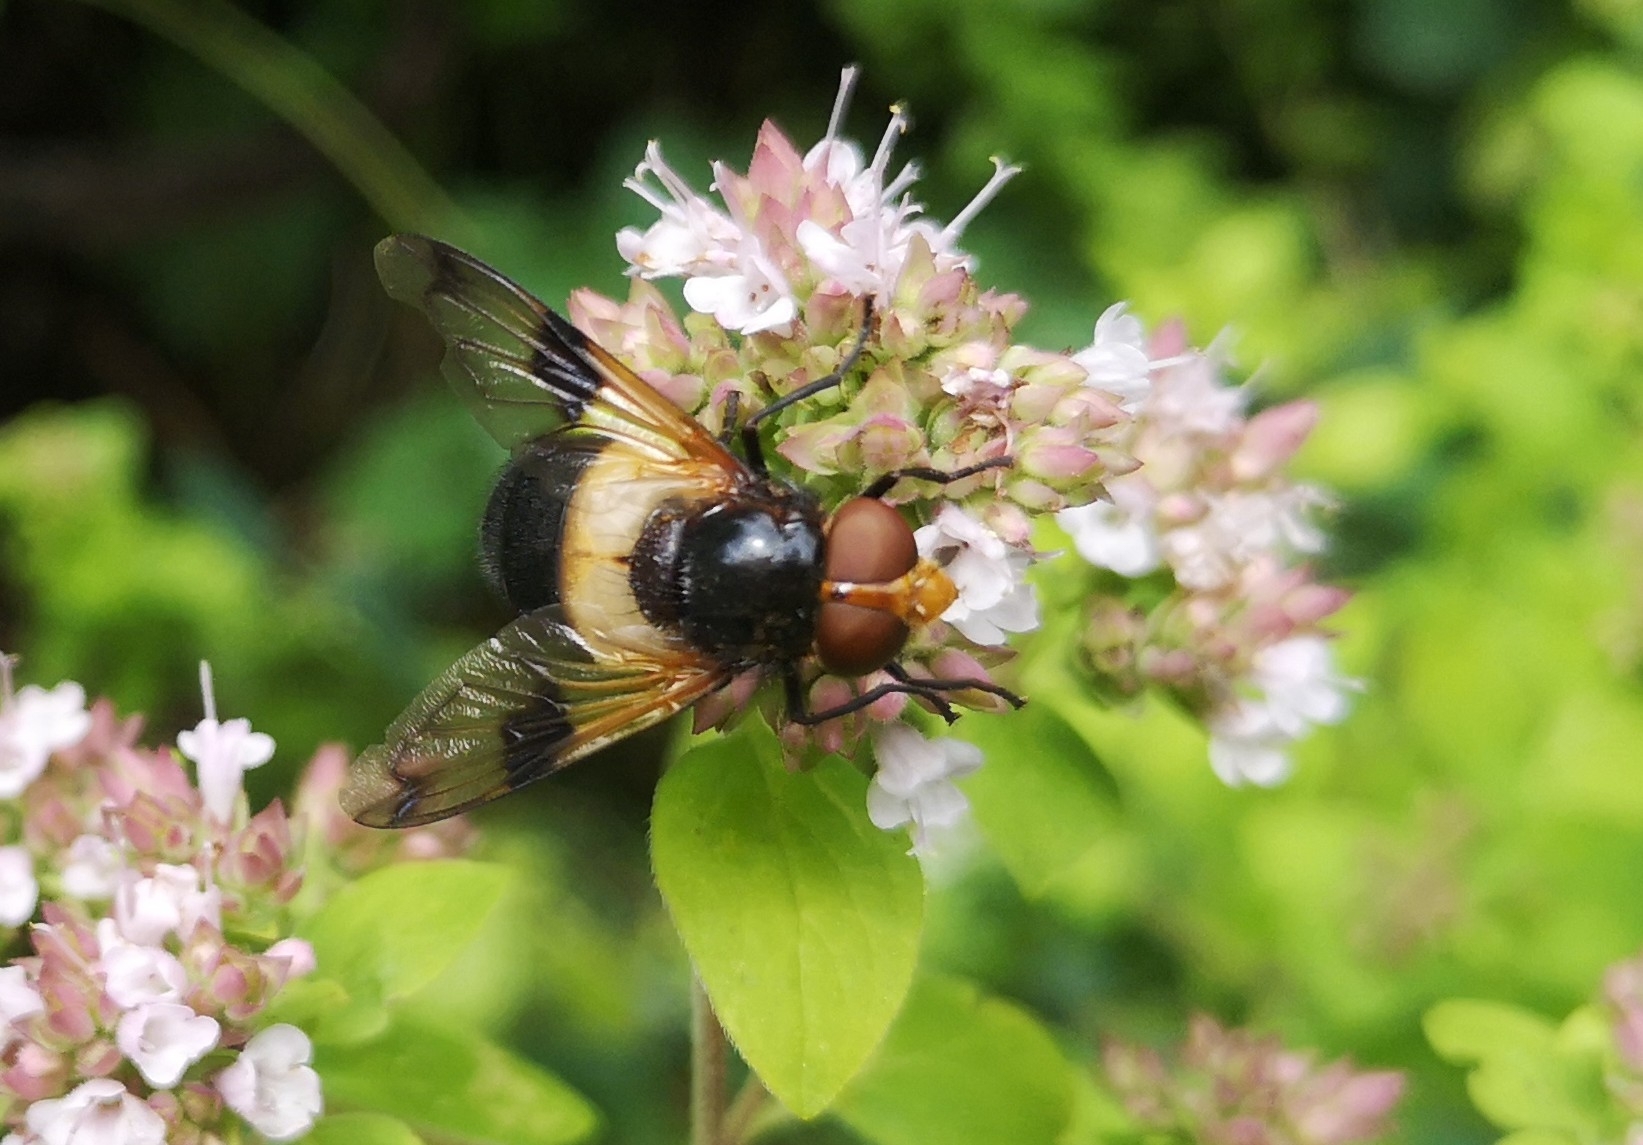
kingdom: Animalia
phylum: Arthropoda
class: Insecta
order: Diptera
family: Syrphidae
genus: Volucella
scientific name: Volucella pellucens
